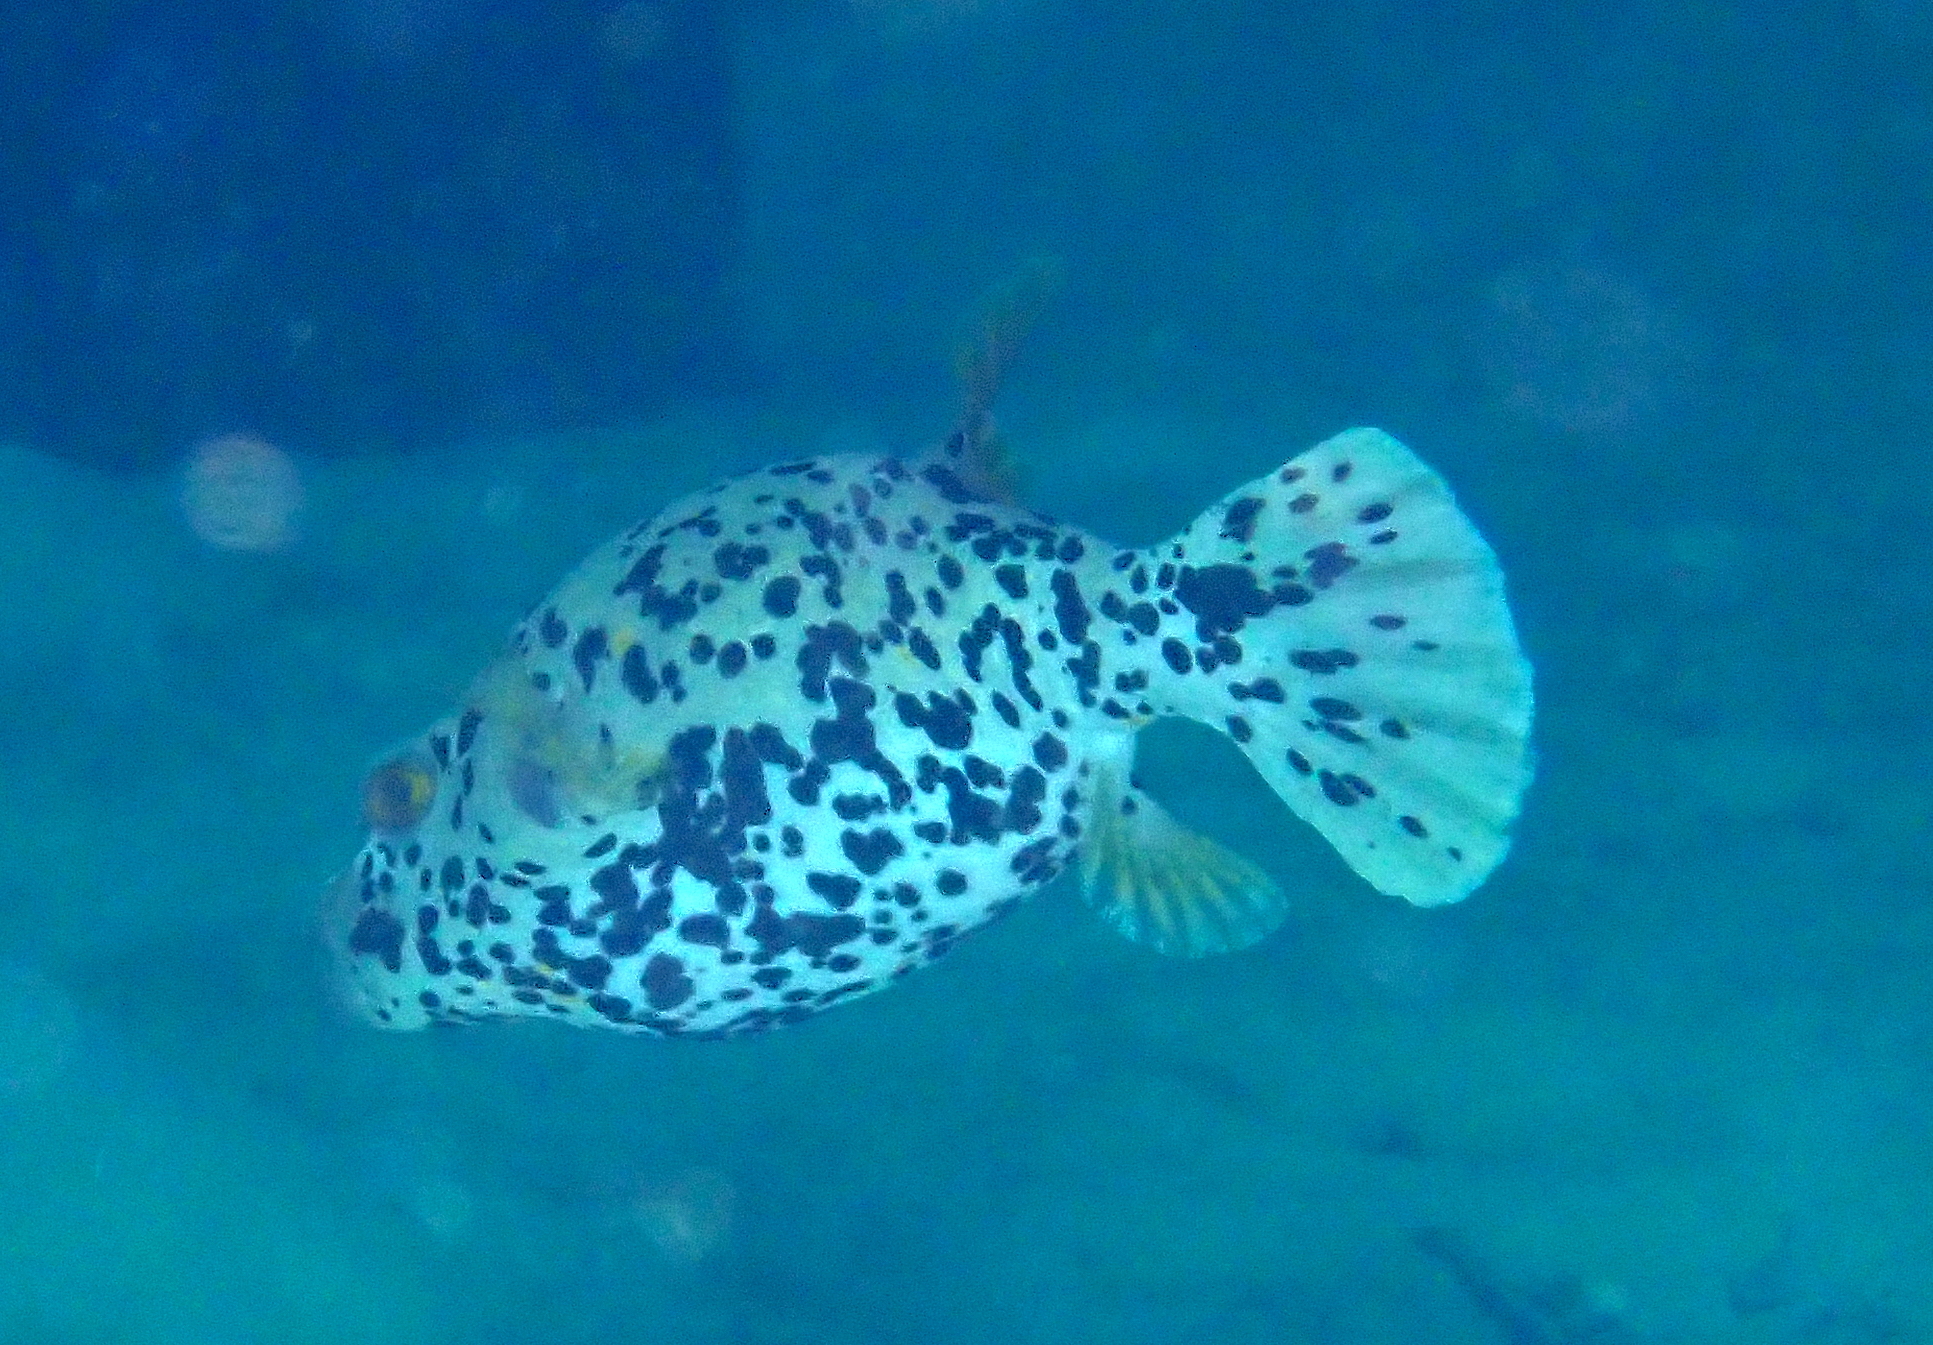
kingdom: Animalia
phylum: Chordata
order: Tetraodontiformes
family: Tetraodontidae
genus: Arothron
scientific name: Arothron nigropunctatus
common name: Black spotted blow fish
